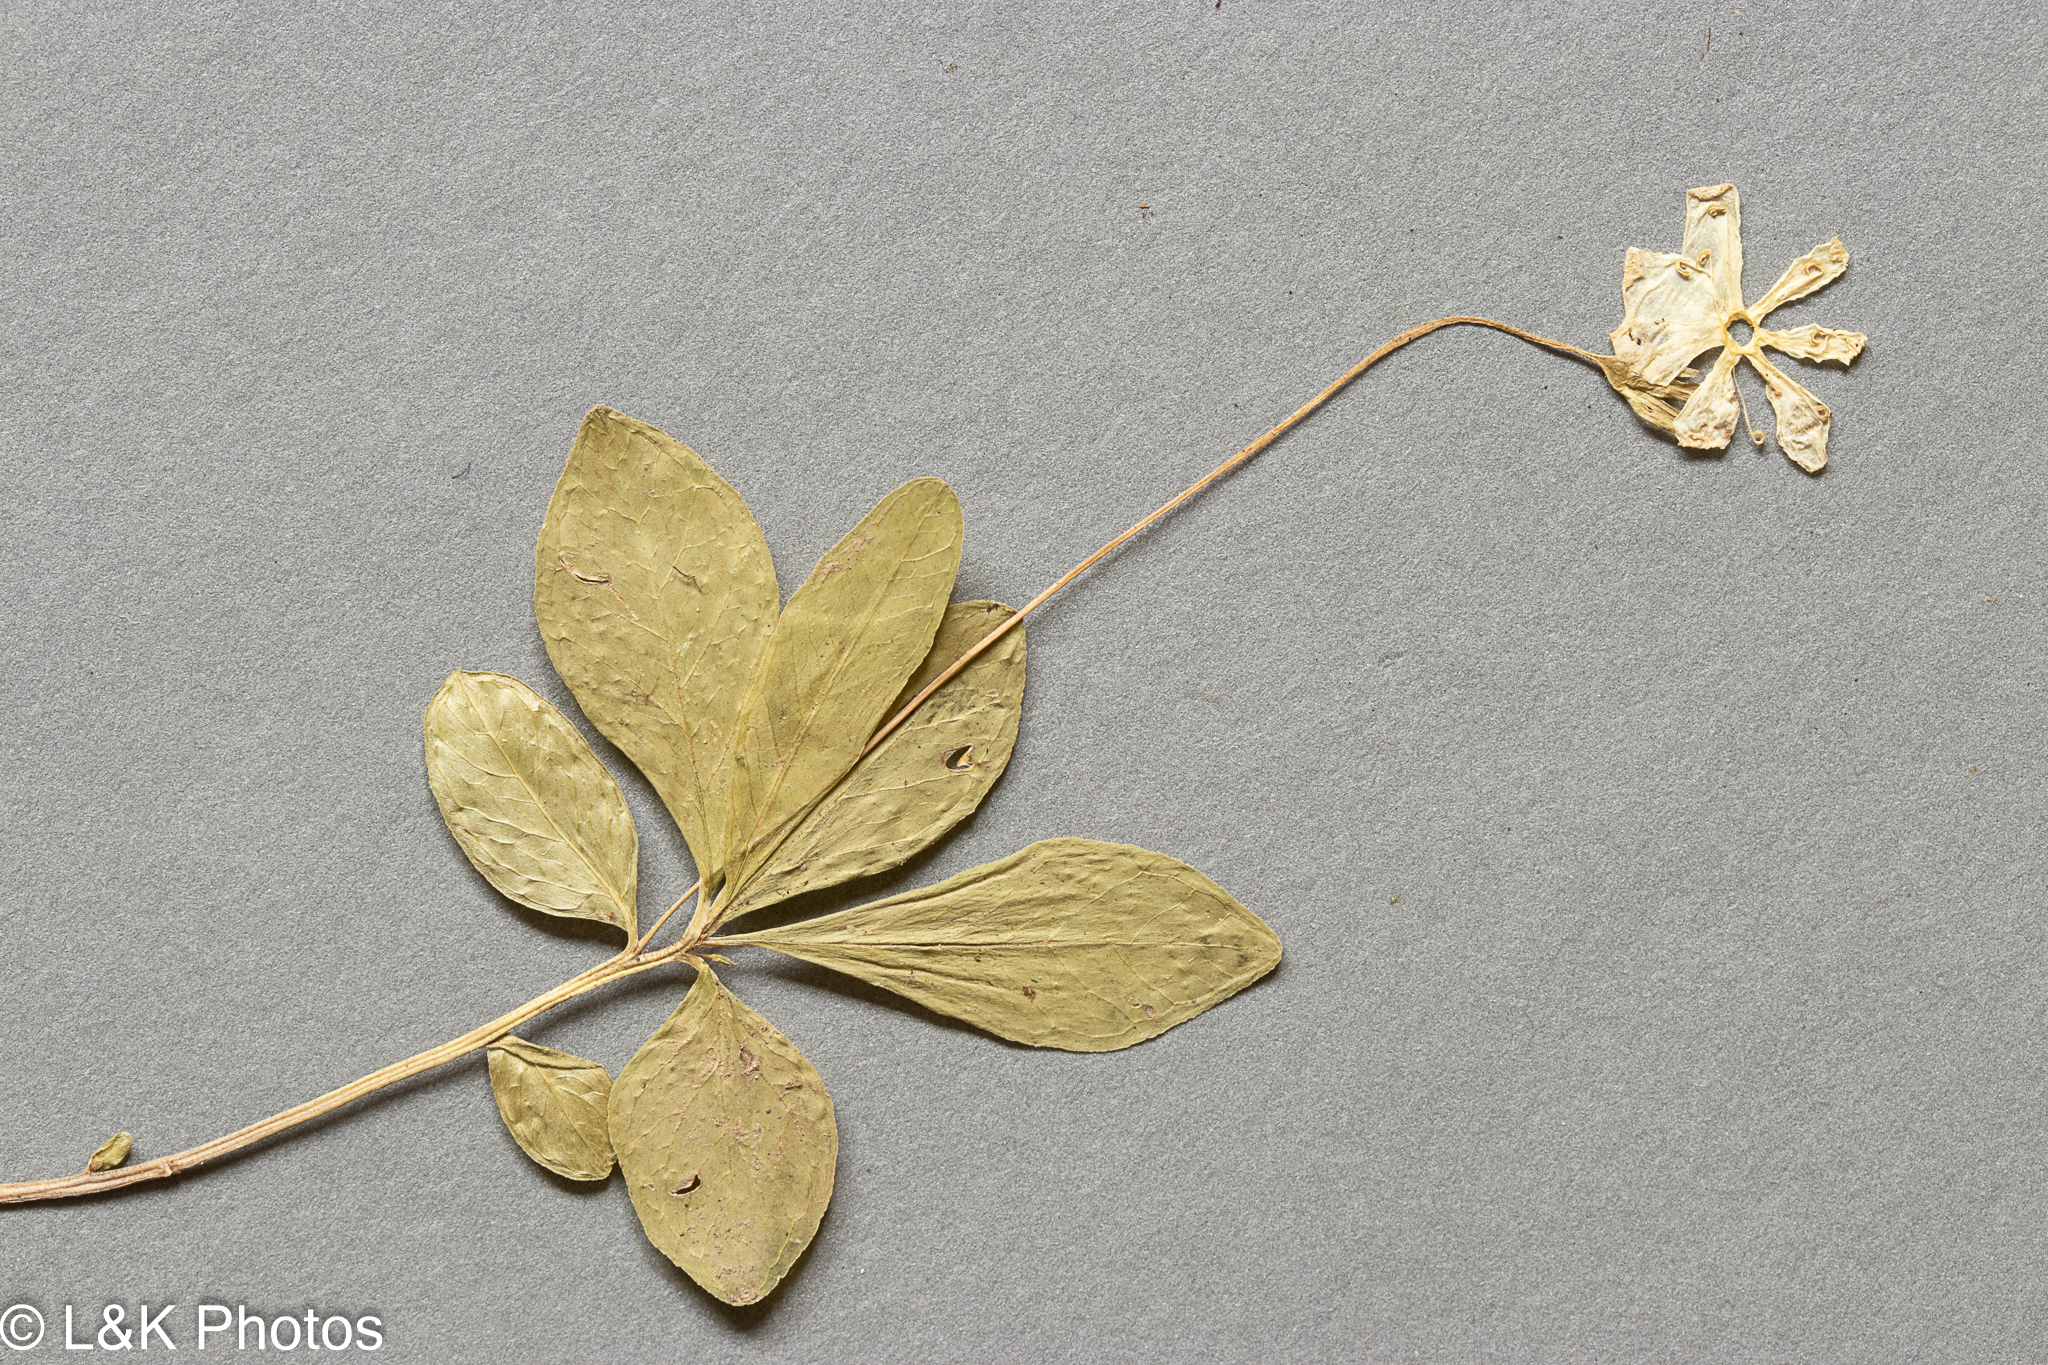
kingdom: Plantae
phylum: Tracheophyta
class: Magnoliopsida
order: Ericales
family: Primulaceae
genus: Lysimachia
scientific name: Lysimachia europaea
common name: Arctic starflower
